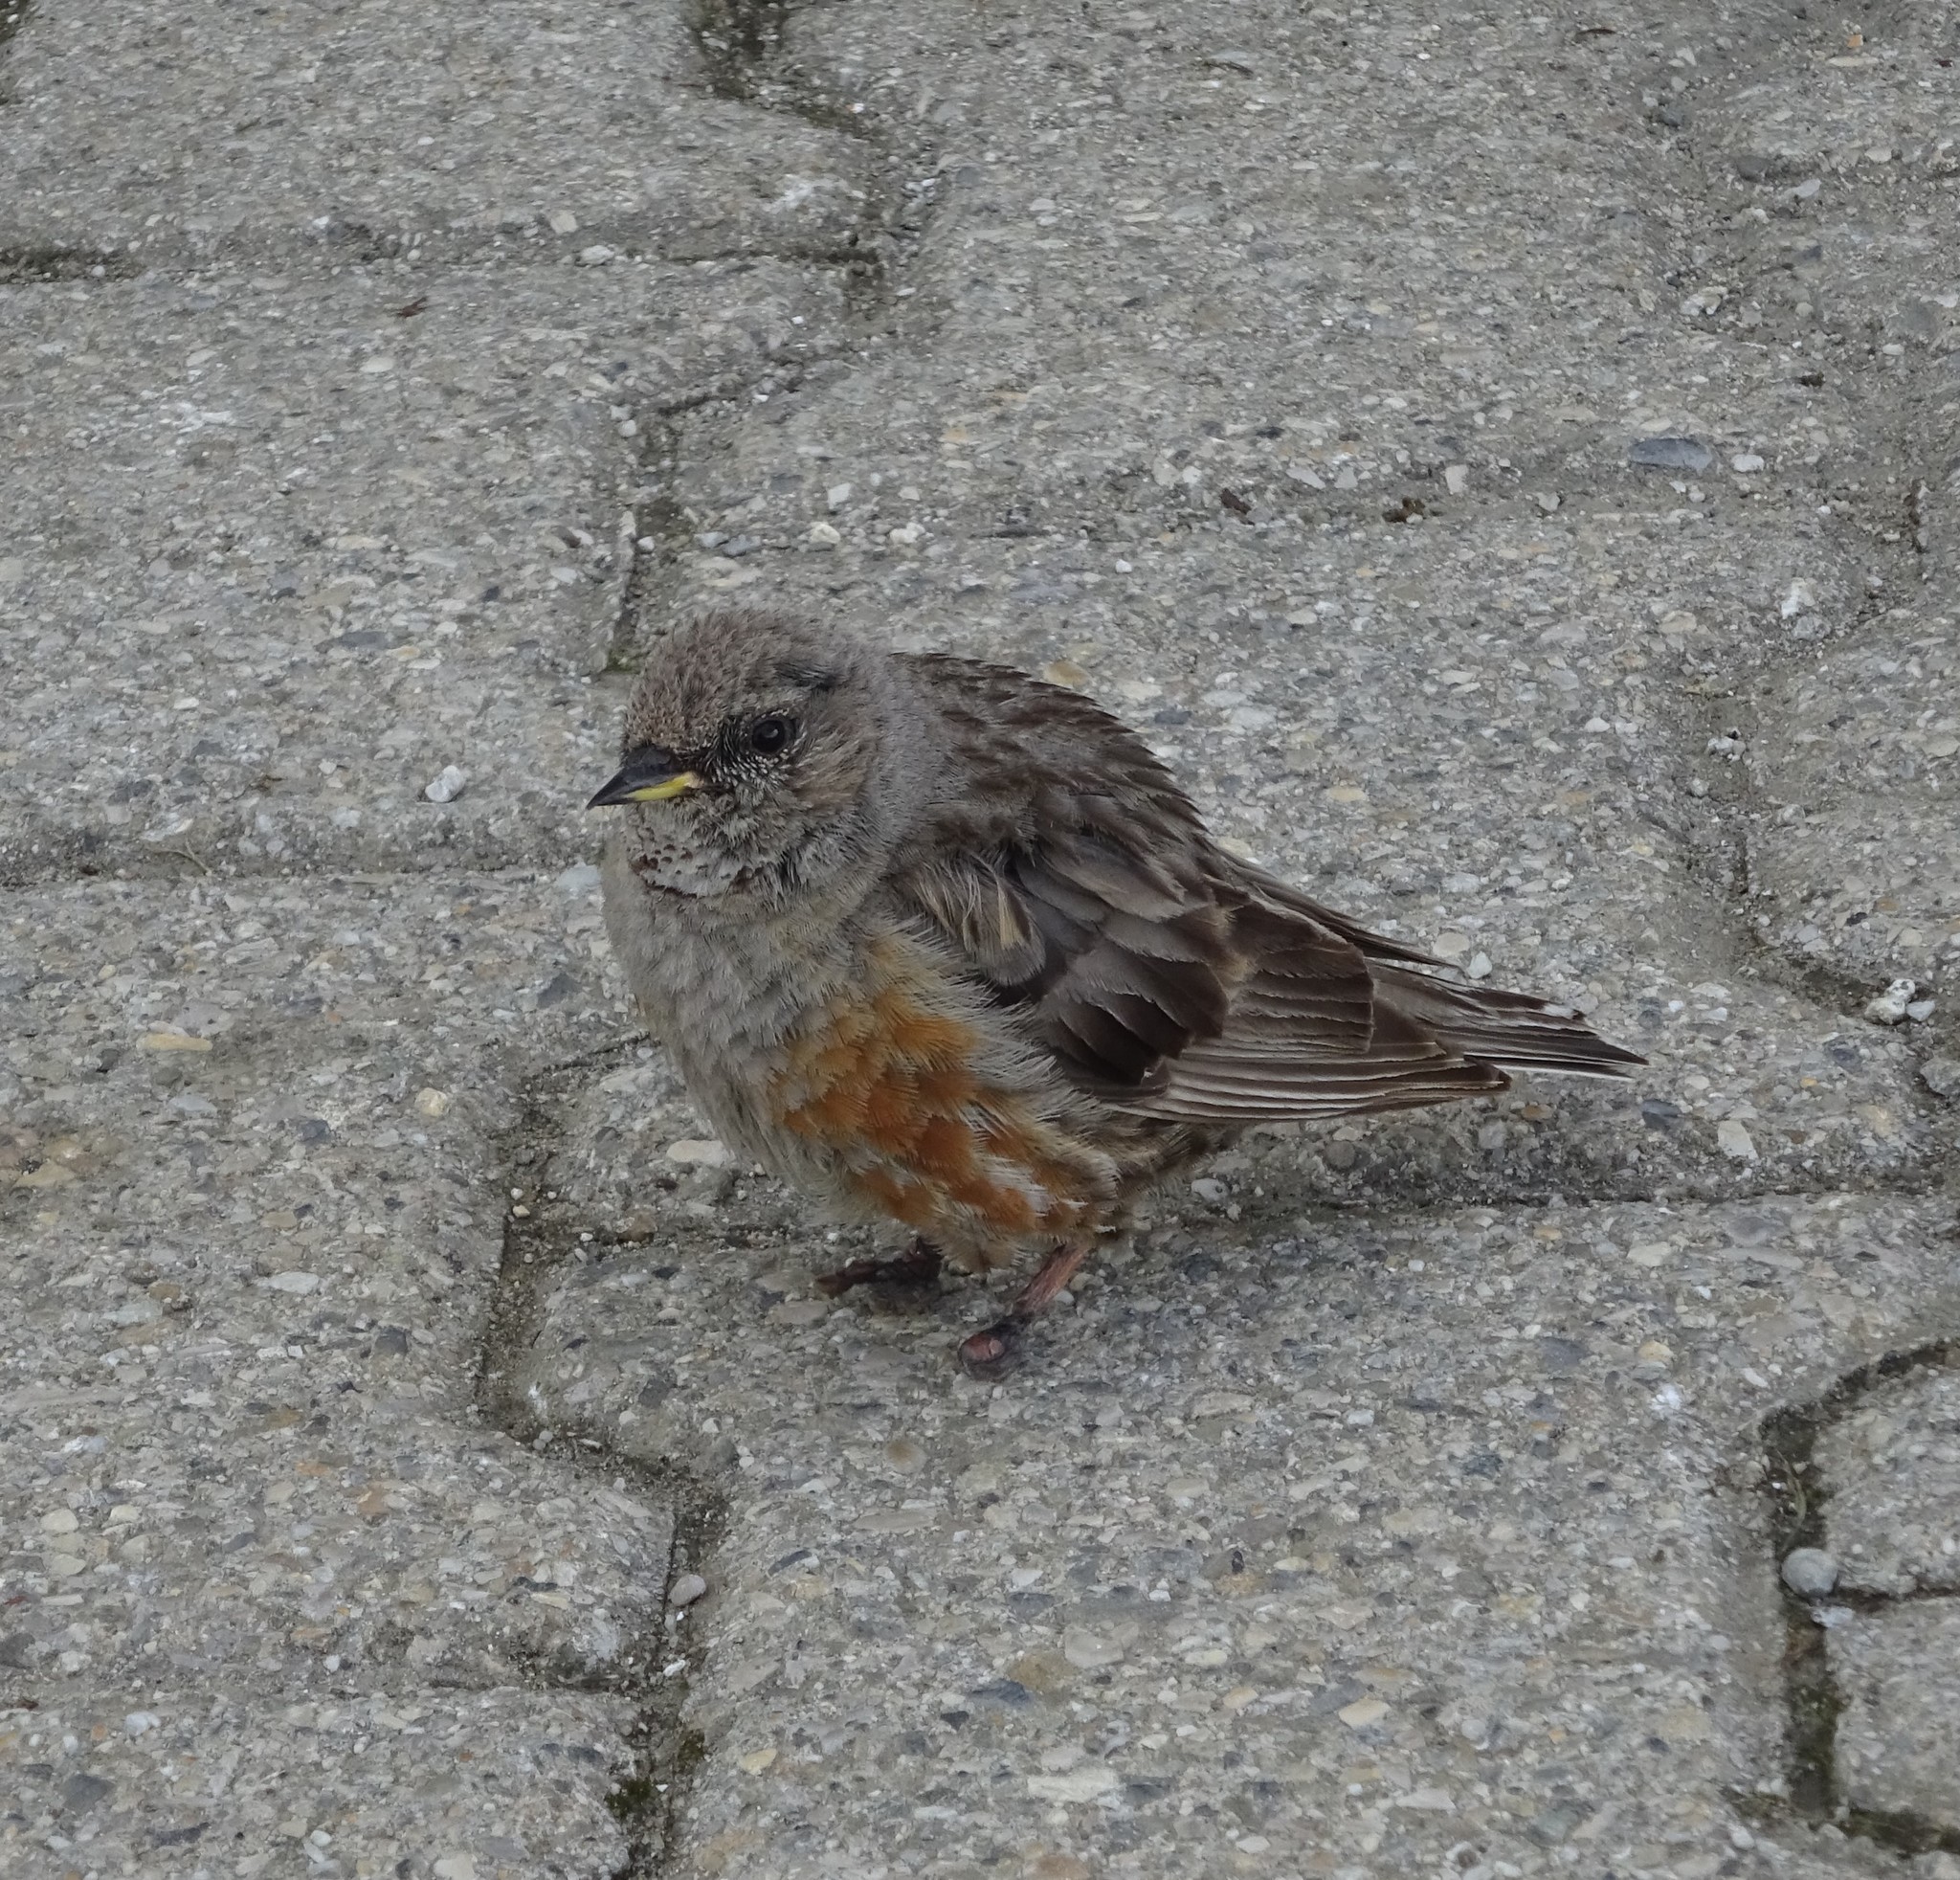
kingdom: Animalia
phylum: Chordata
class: Aves
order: Passeriformes
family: Prunellidae
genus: Prunella
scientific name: Prunella collaris
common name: Alpine accentor
